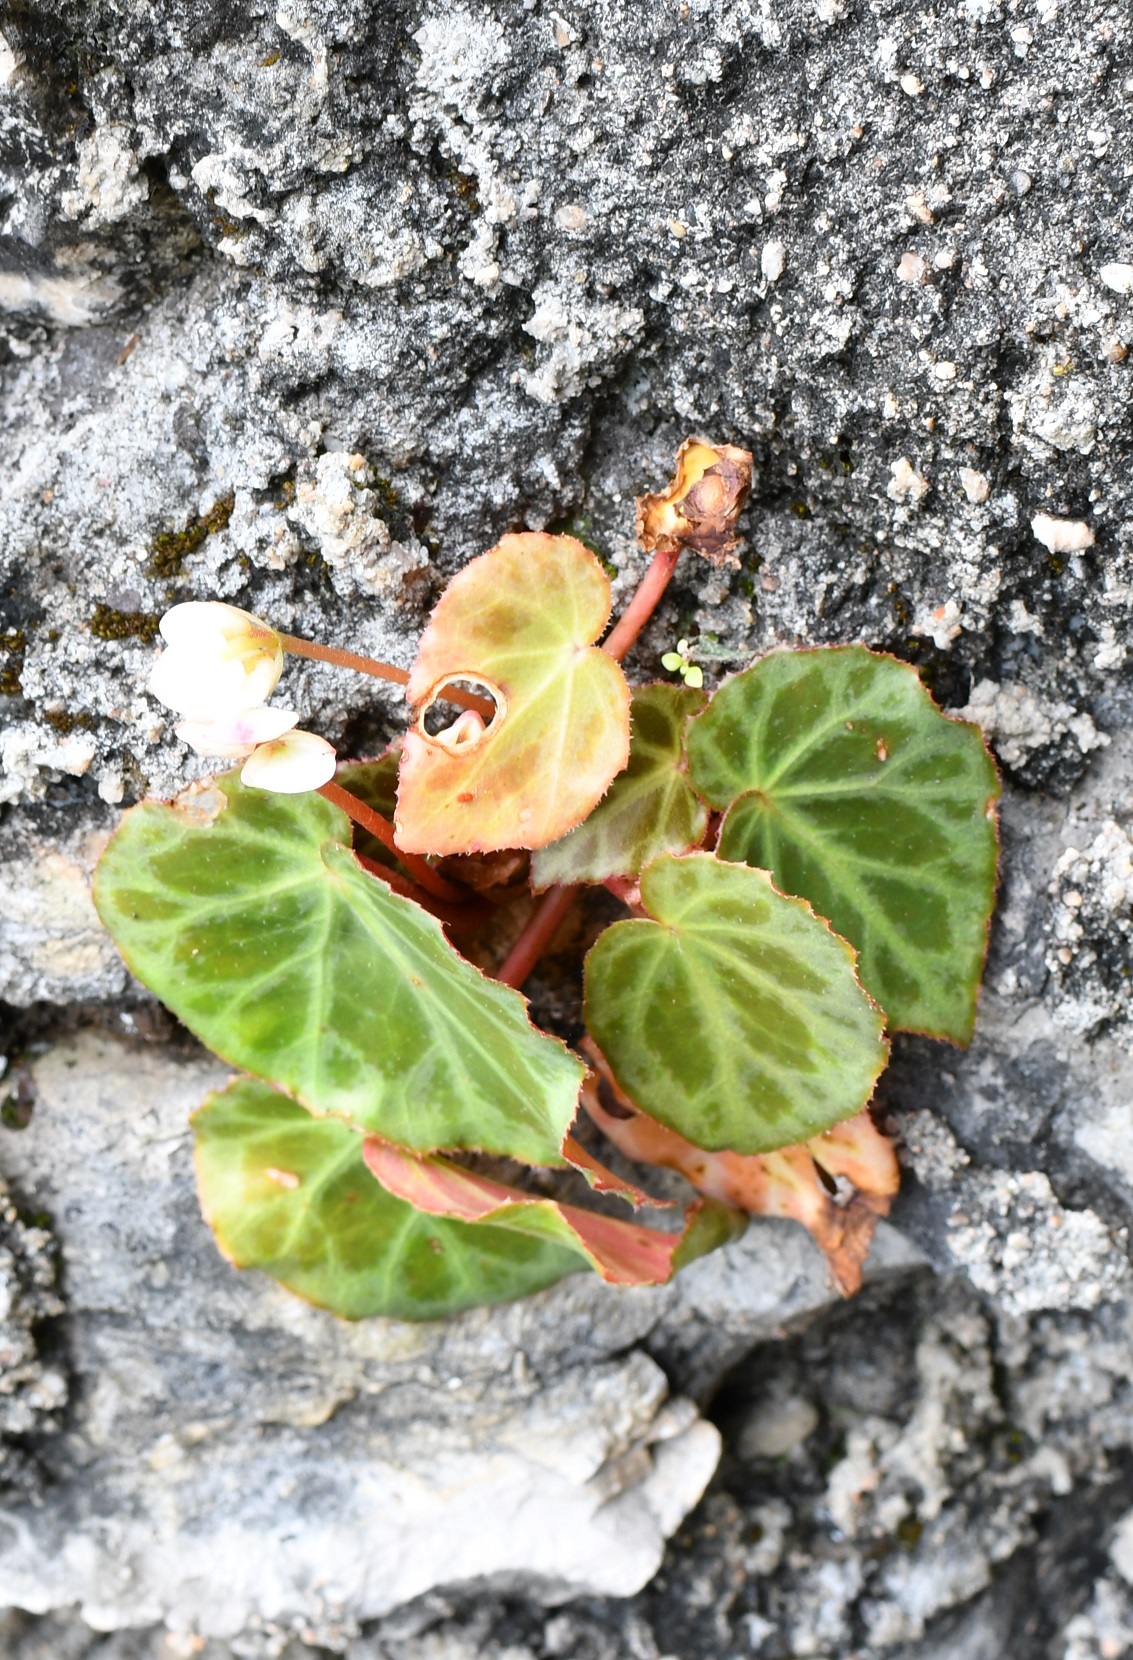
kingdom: Plantae
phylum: Tracheophyta
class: Magnoliopsida
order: Cucurbitales
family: Begoniaceae
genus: Begonia
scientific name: Begonia plebeja
